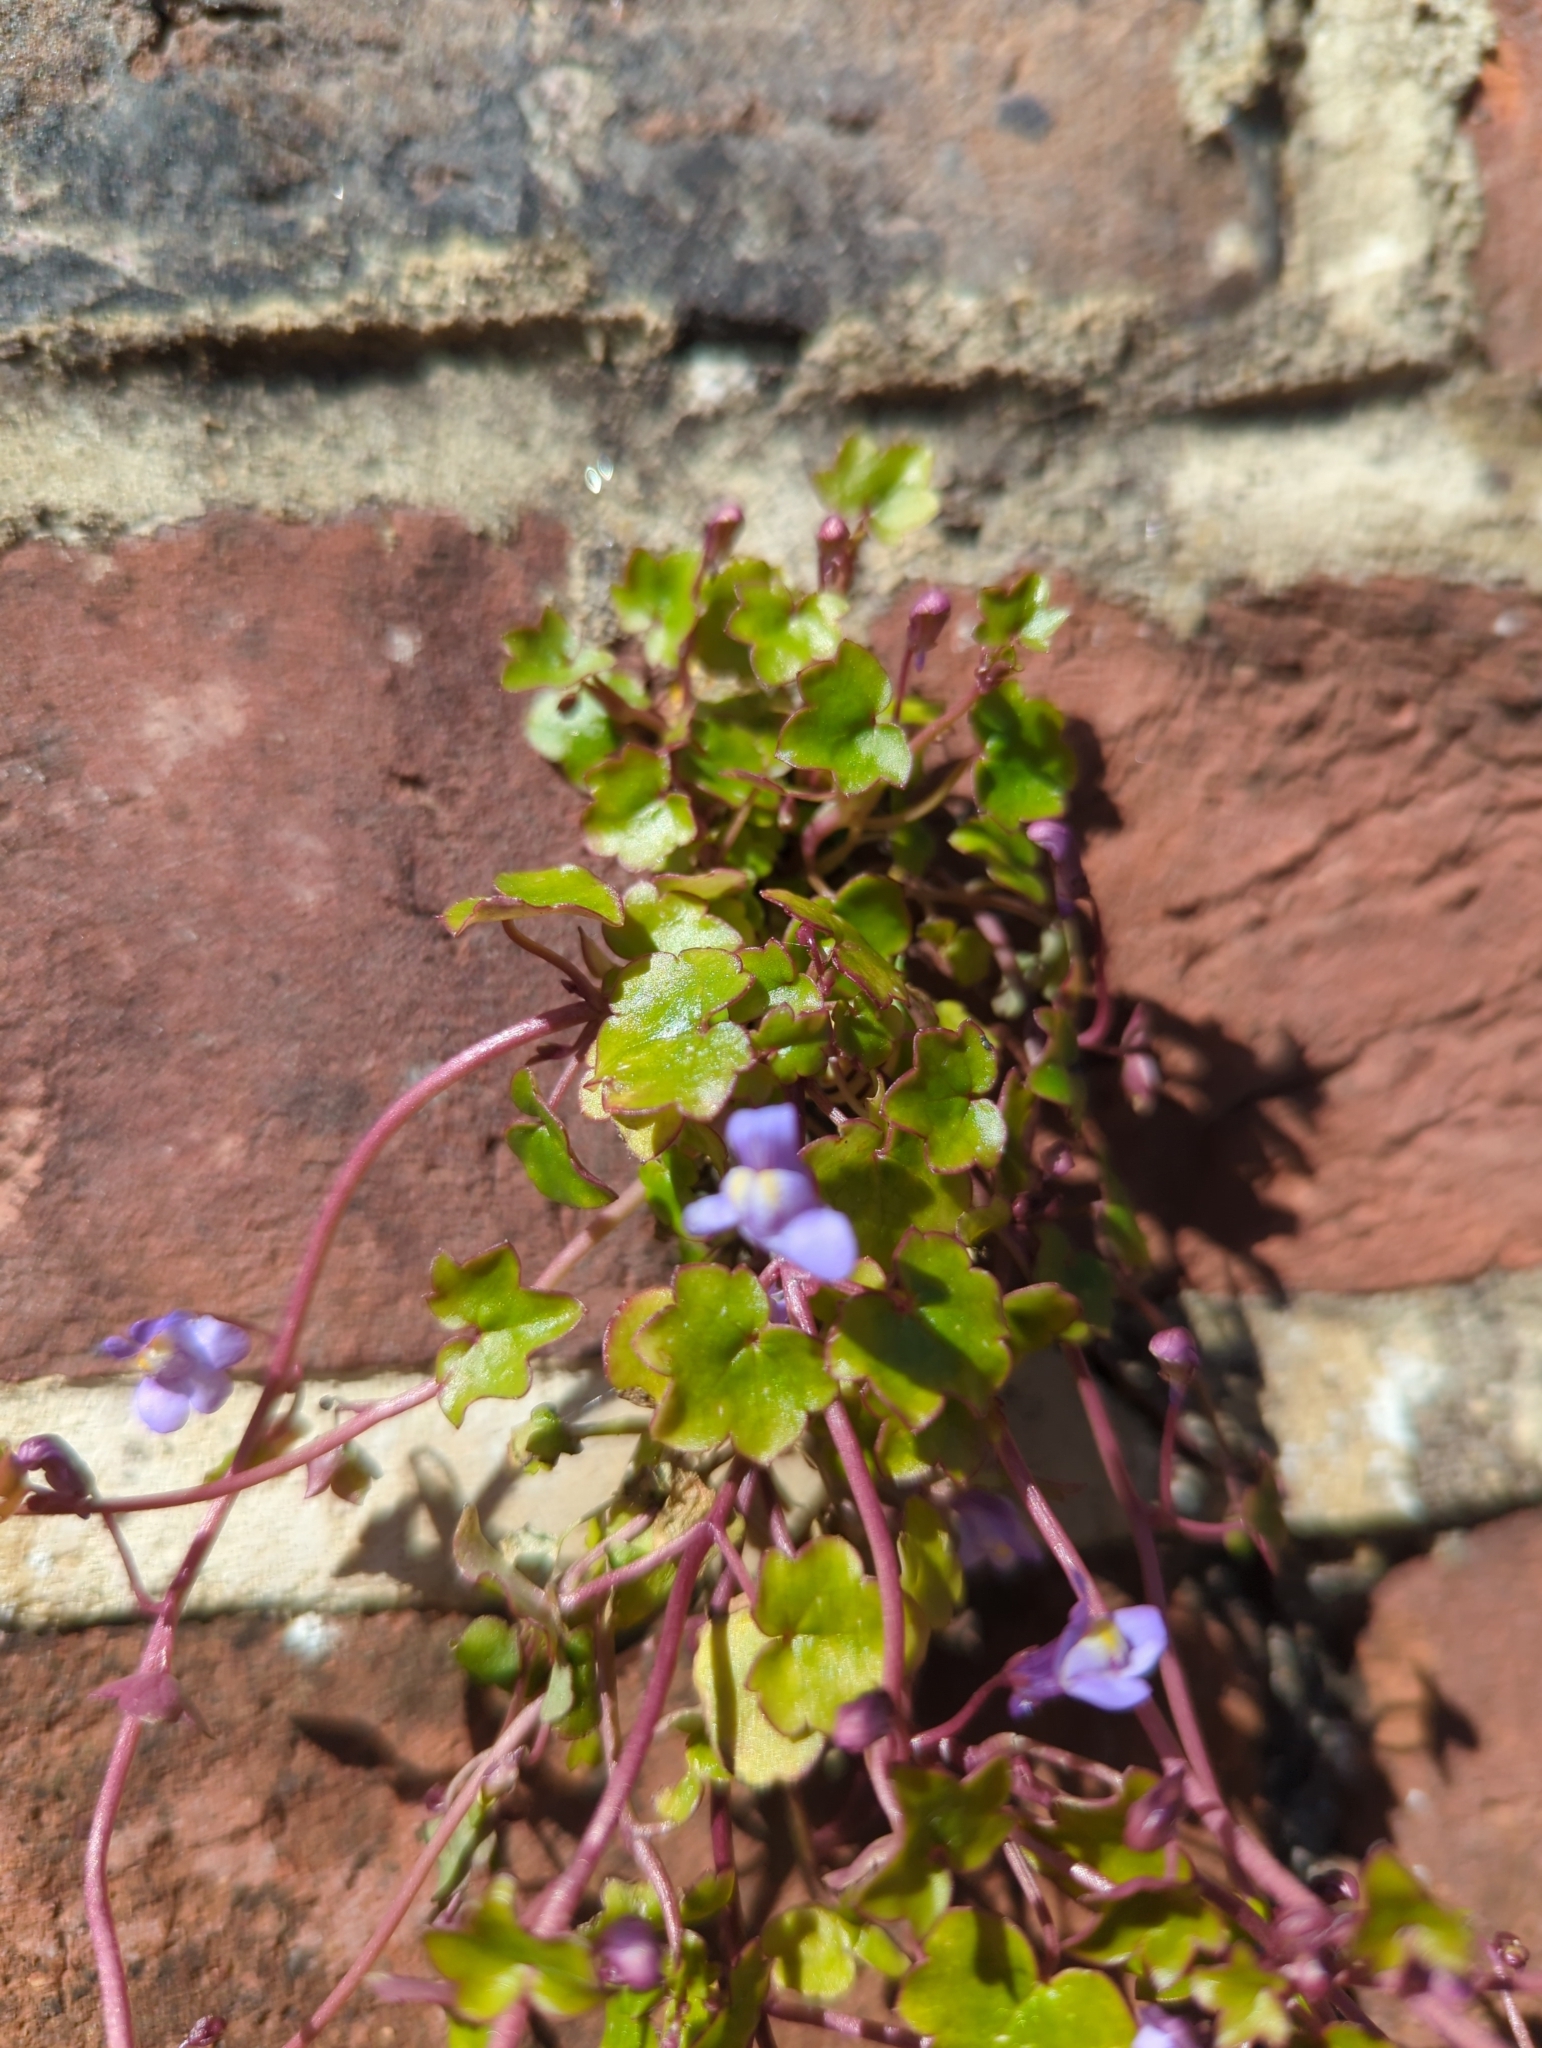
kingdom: Plantae
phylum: Tracheophyta
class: Magnoliopsida
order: Lamiales
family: Plantaginaceae
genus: Cymbalaria
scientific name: Cymbalaria muralis
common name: Ivy-leaved toadflax
